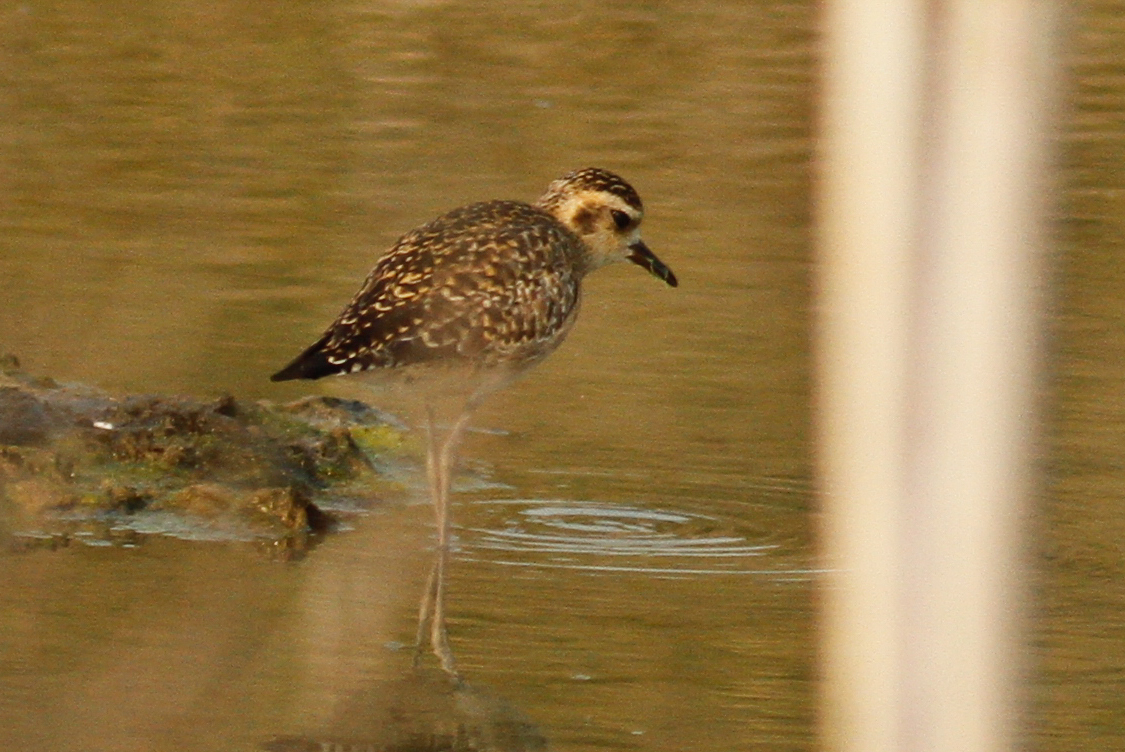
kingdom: Animalia
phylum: Chordata
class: Aves
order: Charadriiformes
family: Charadriidae
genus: Pluvialis
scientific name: Pluvialis fulva
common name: Pacific golden plover
